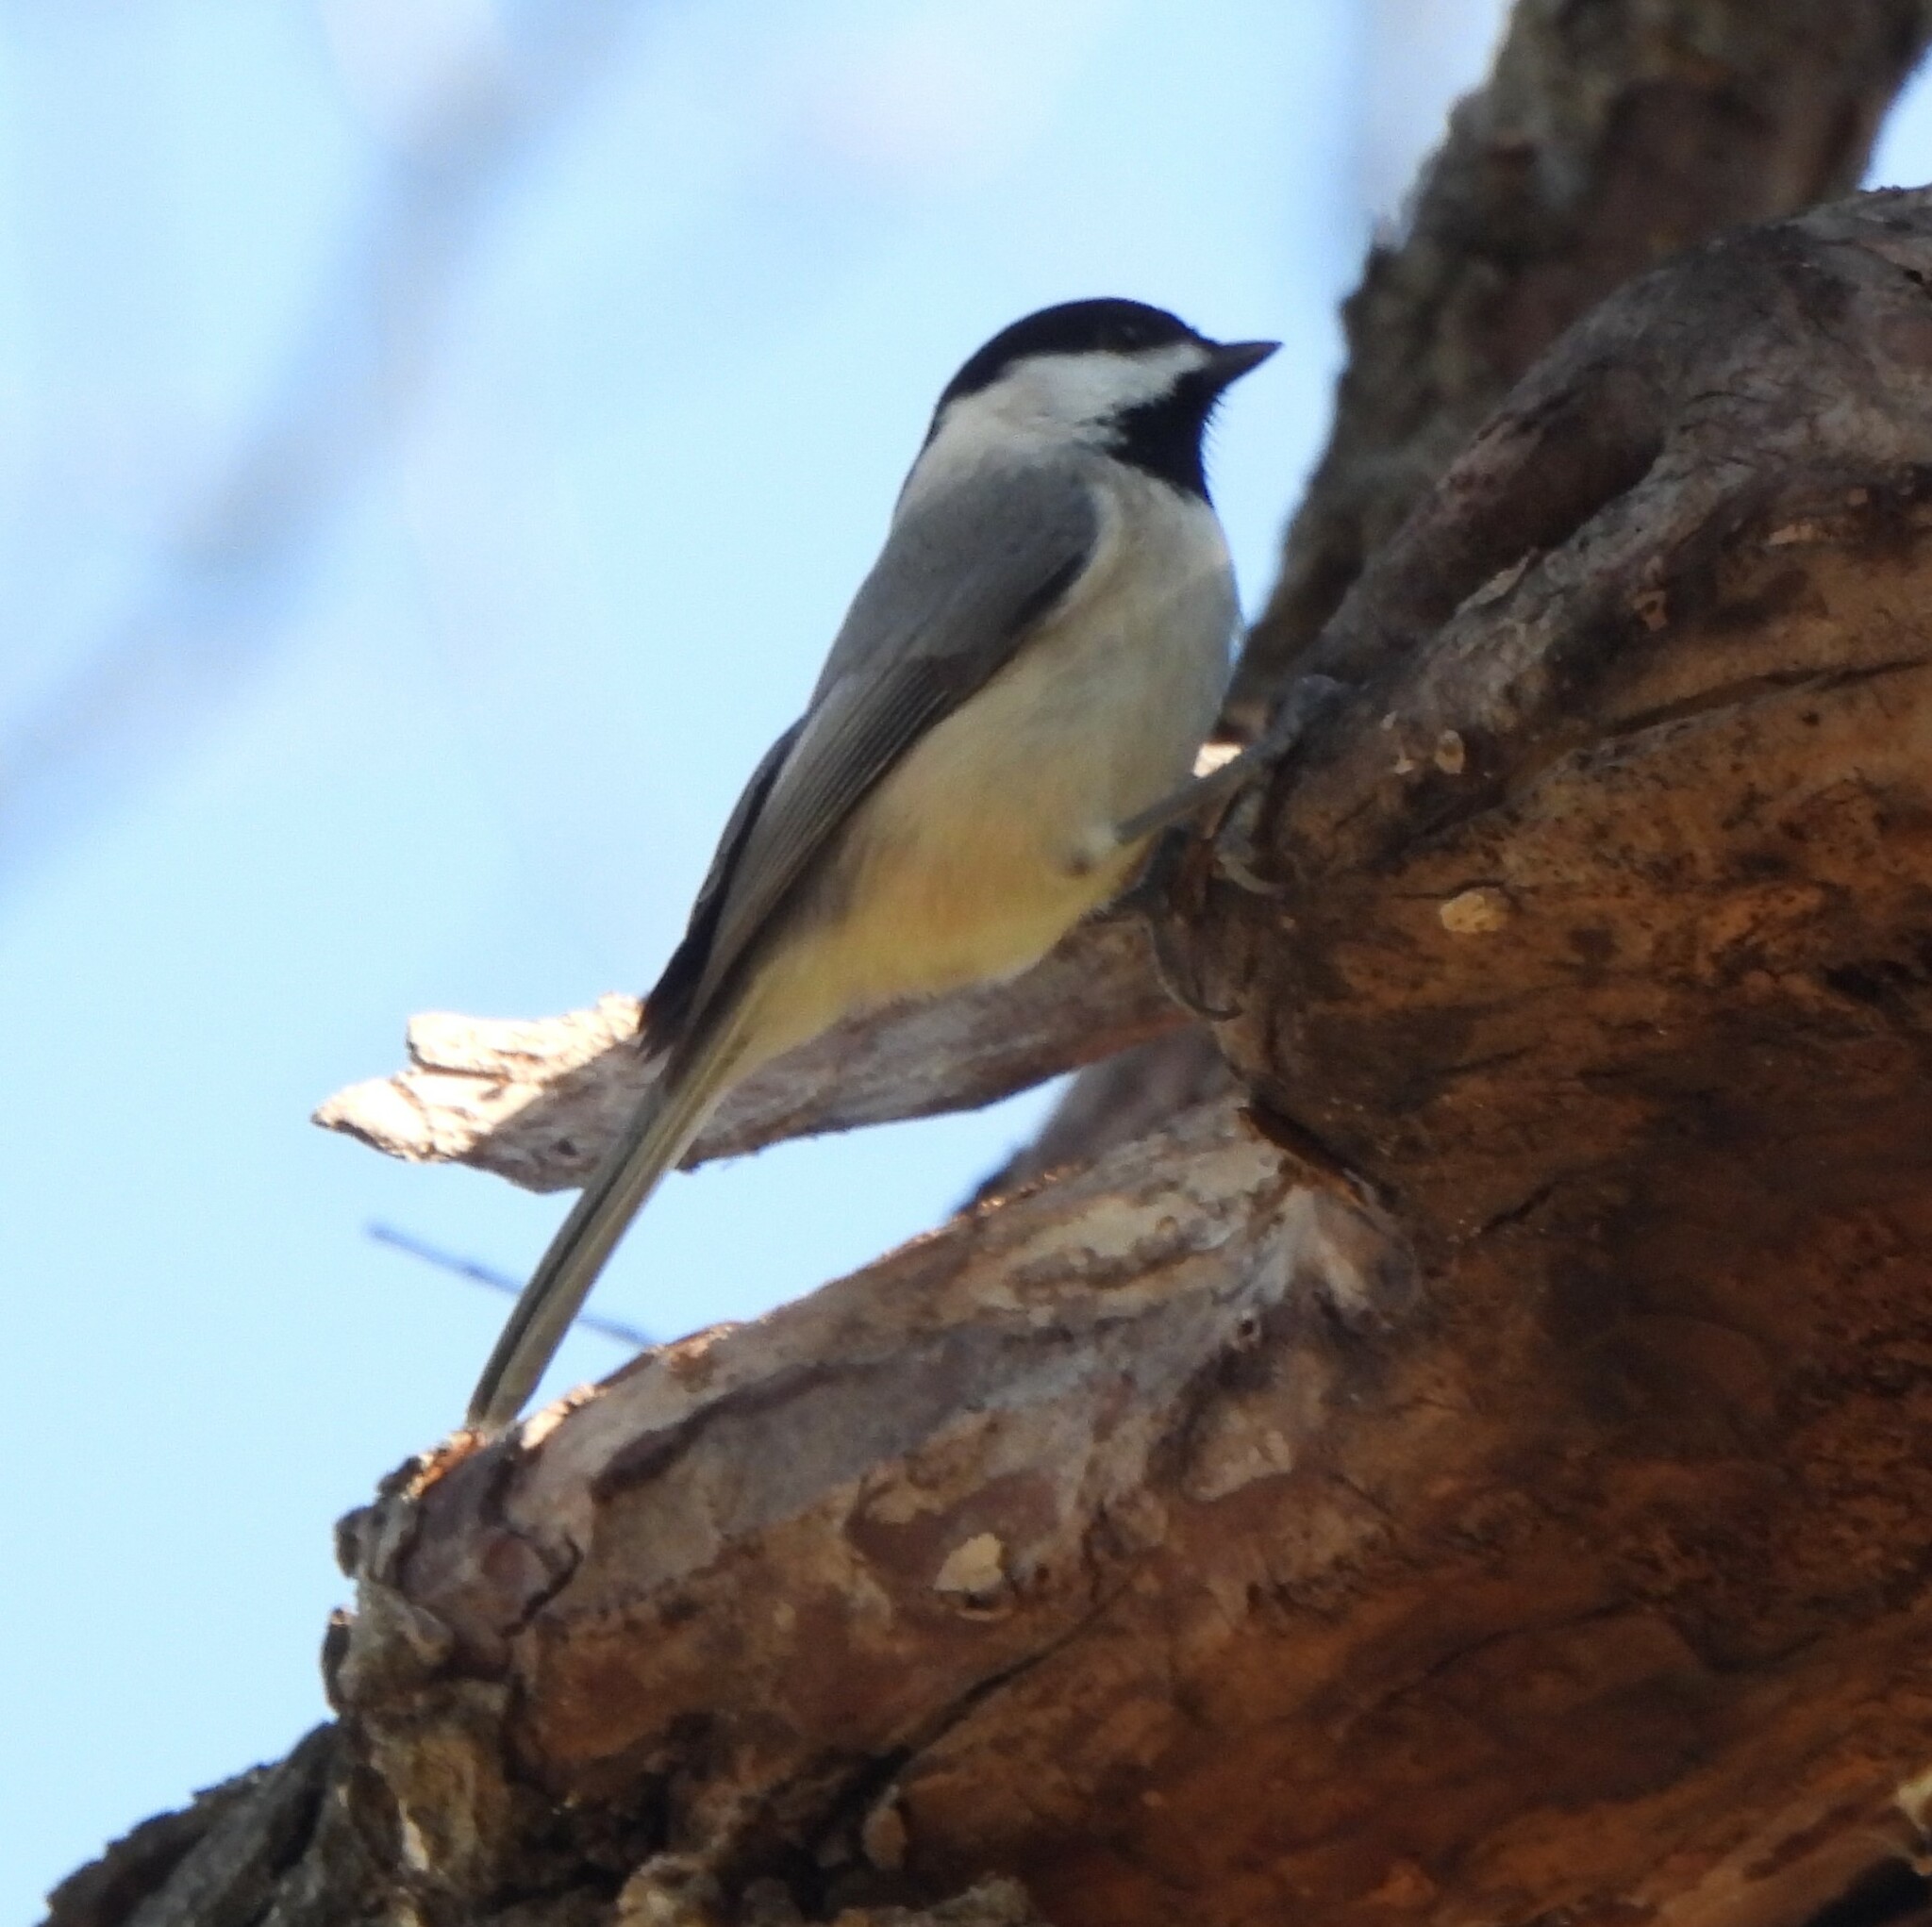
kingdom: Animalia
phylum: Chordata
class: Aves
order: Passeriformes
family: Paridae
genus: Poecile
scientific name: Poecile carolinensis
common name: Carolina chickadee
